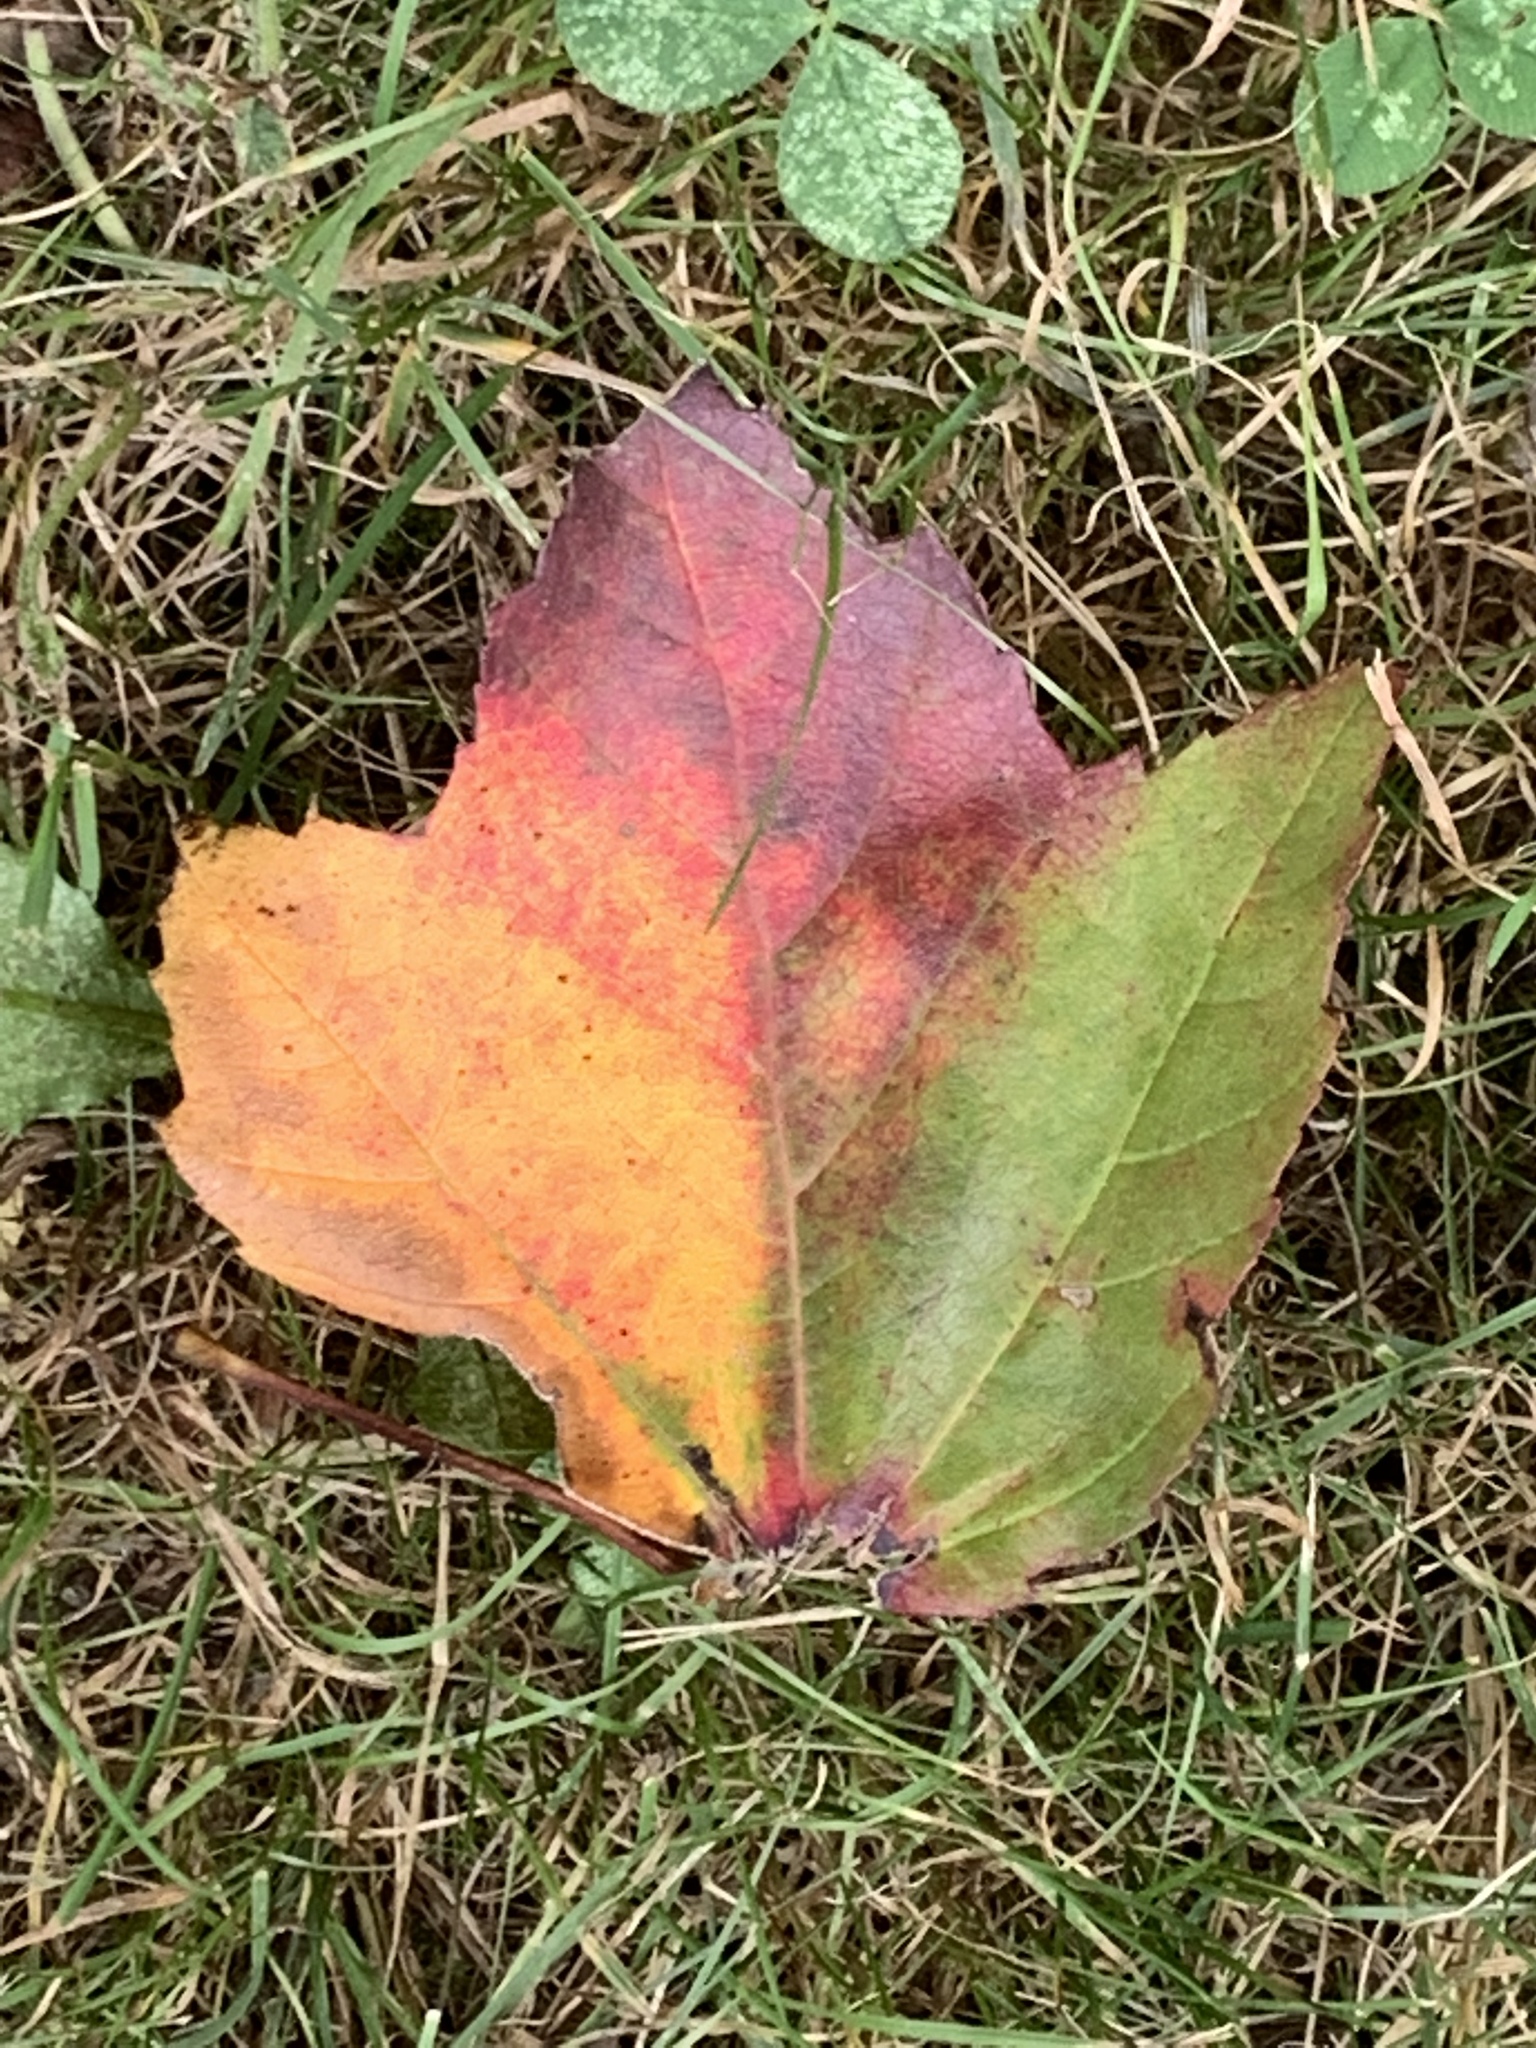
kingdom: Plantae
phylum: Tracheophyta
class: Magnoliopsida
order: Sapindales
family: Sapindaceae
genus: Acer
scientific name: Acer rubrum
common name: Red maple
